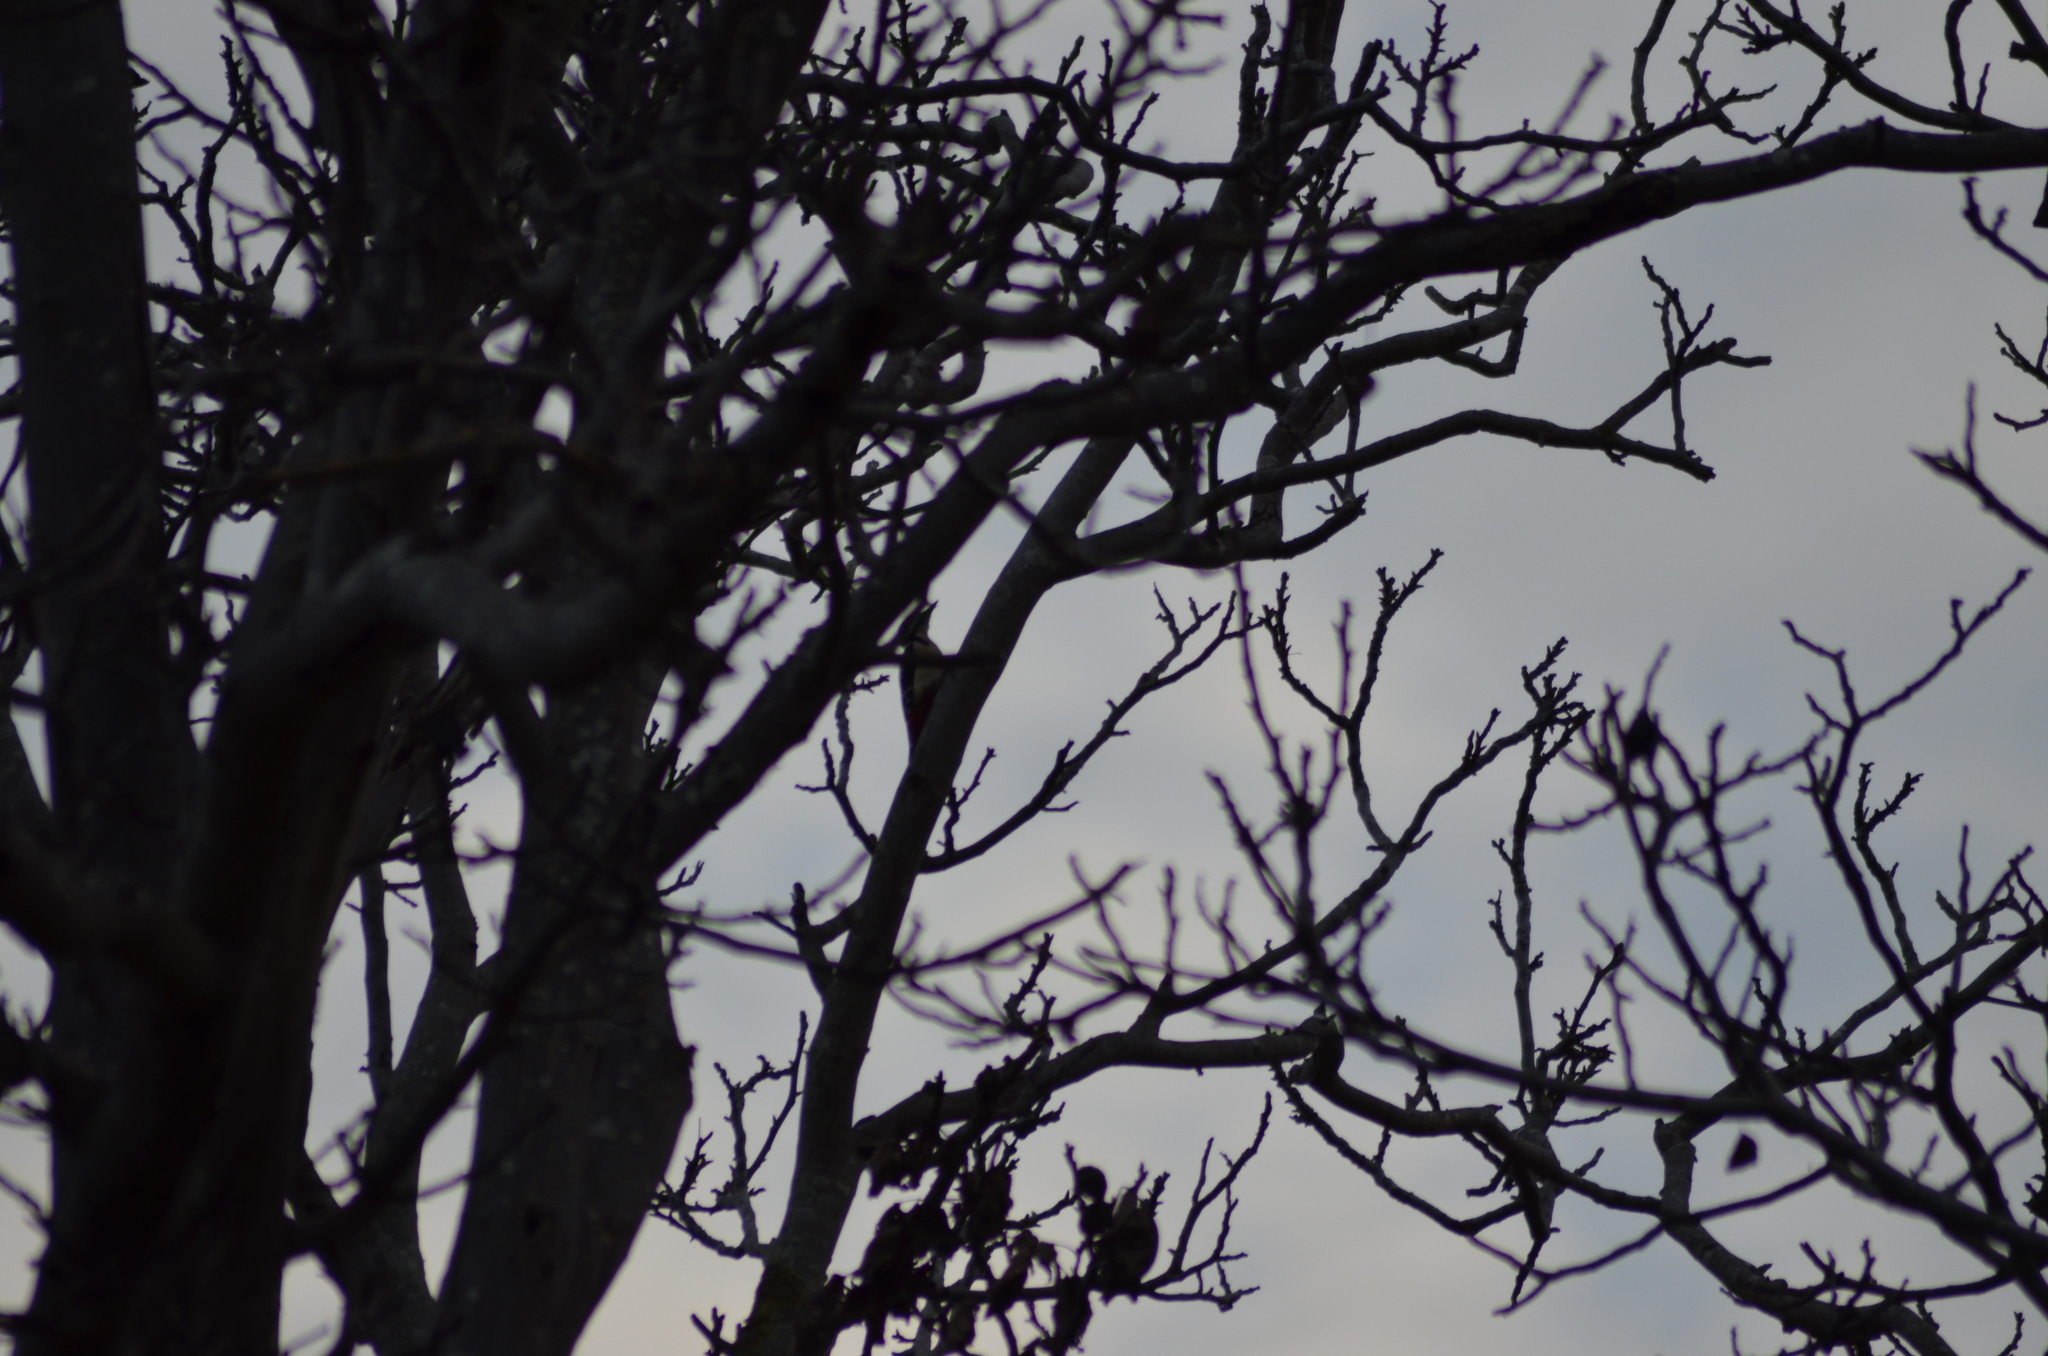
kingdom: Animalia
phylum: Chordata
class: Aves
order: Piciformes
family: Picidae
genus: Dendrocopos
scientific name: Dendrocopos major
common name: Great spotted woodpecker
